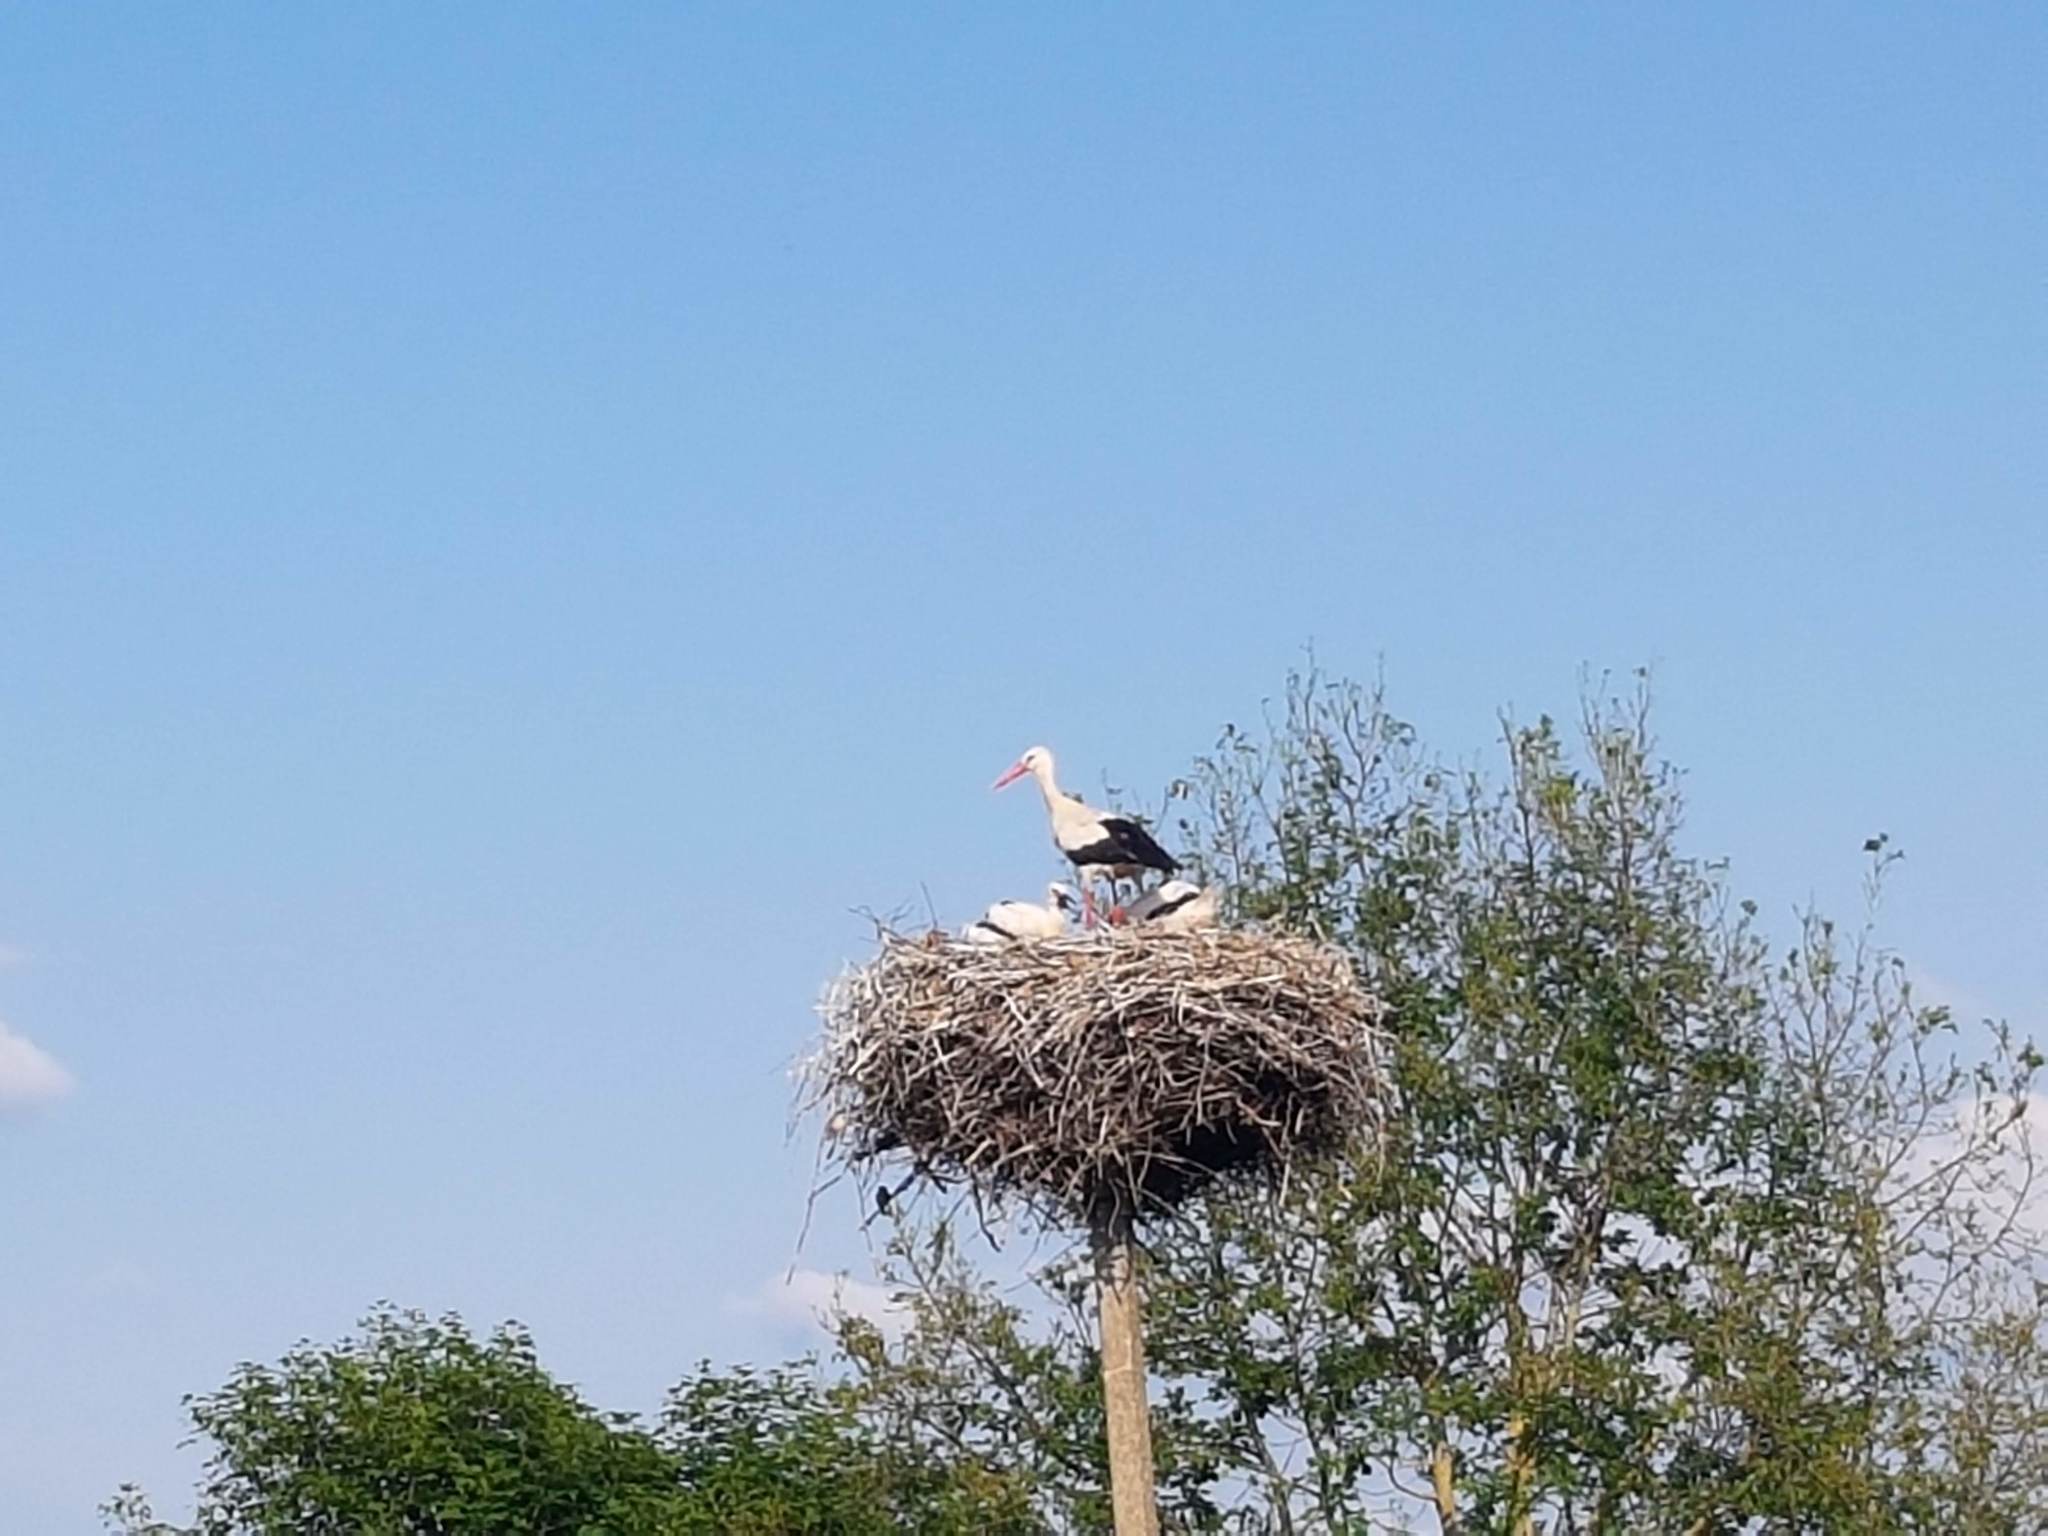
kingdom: Animalia
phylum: Chordata
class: Aves
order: Ciconiiformes
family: Ciconiidae
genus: Ciconia
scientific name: Ciconia ciconia
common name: White stork
